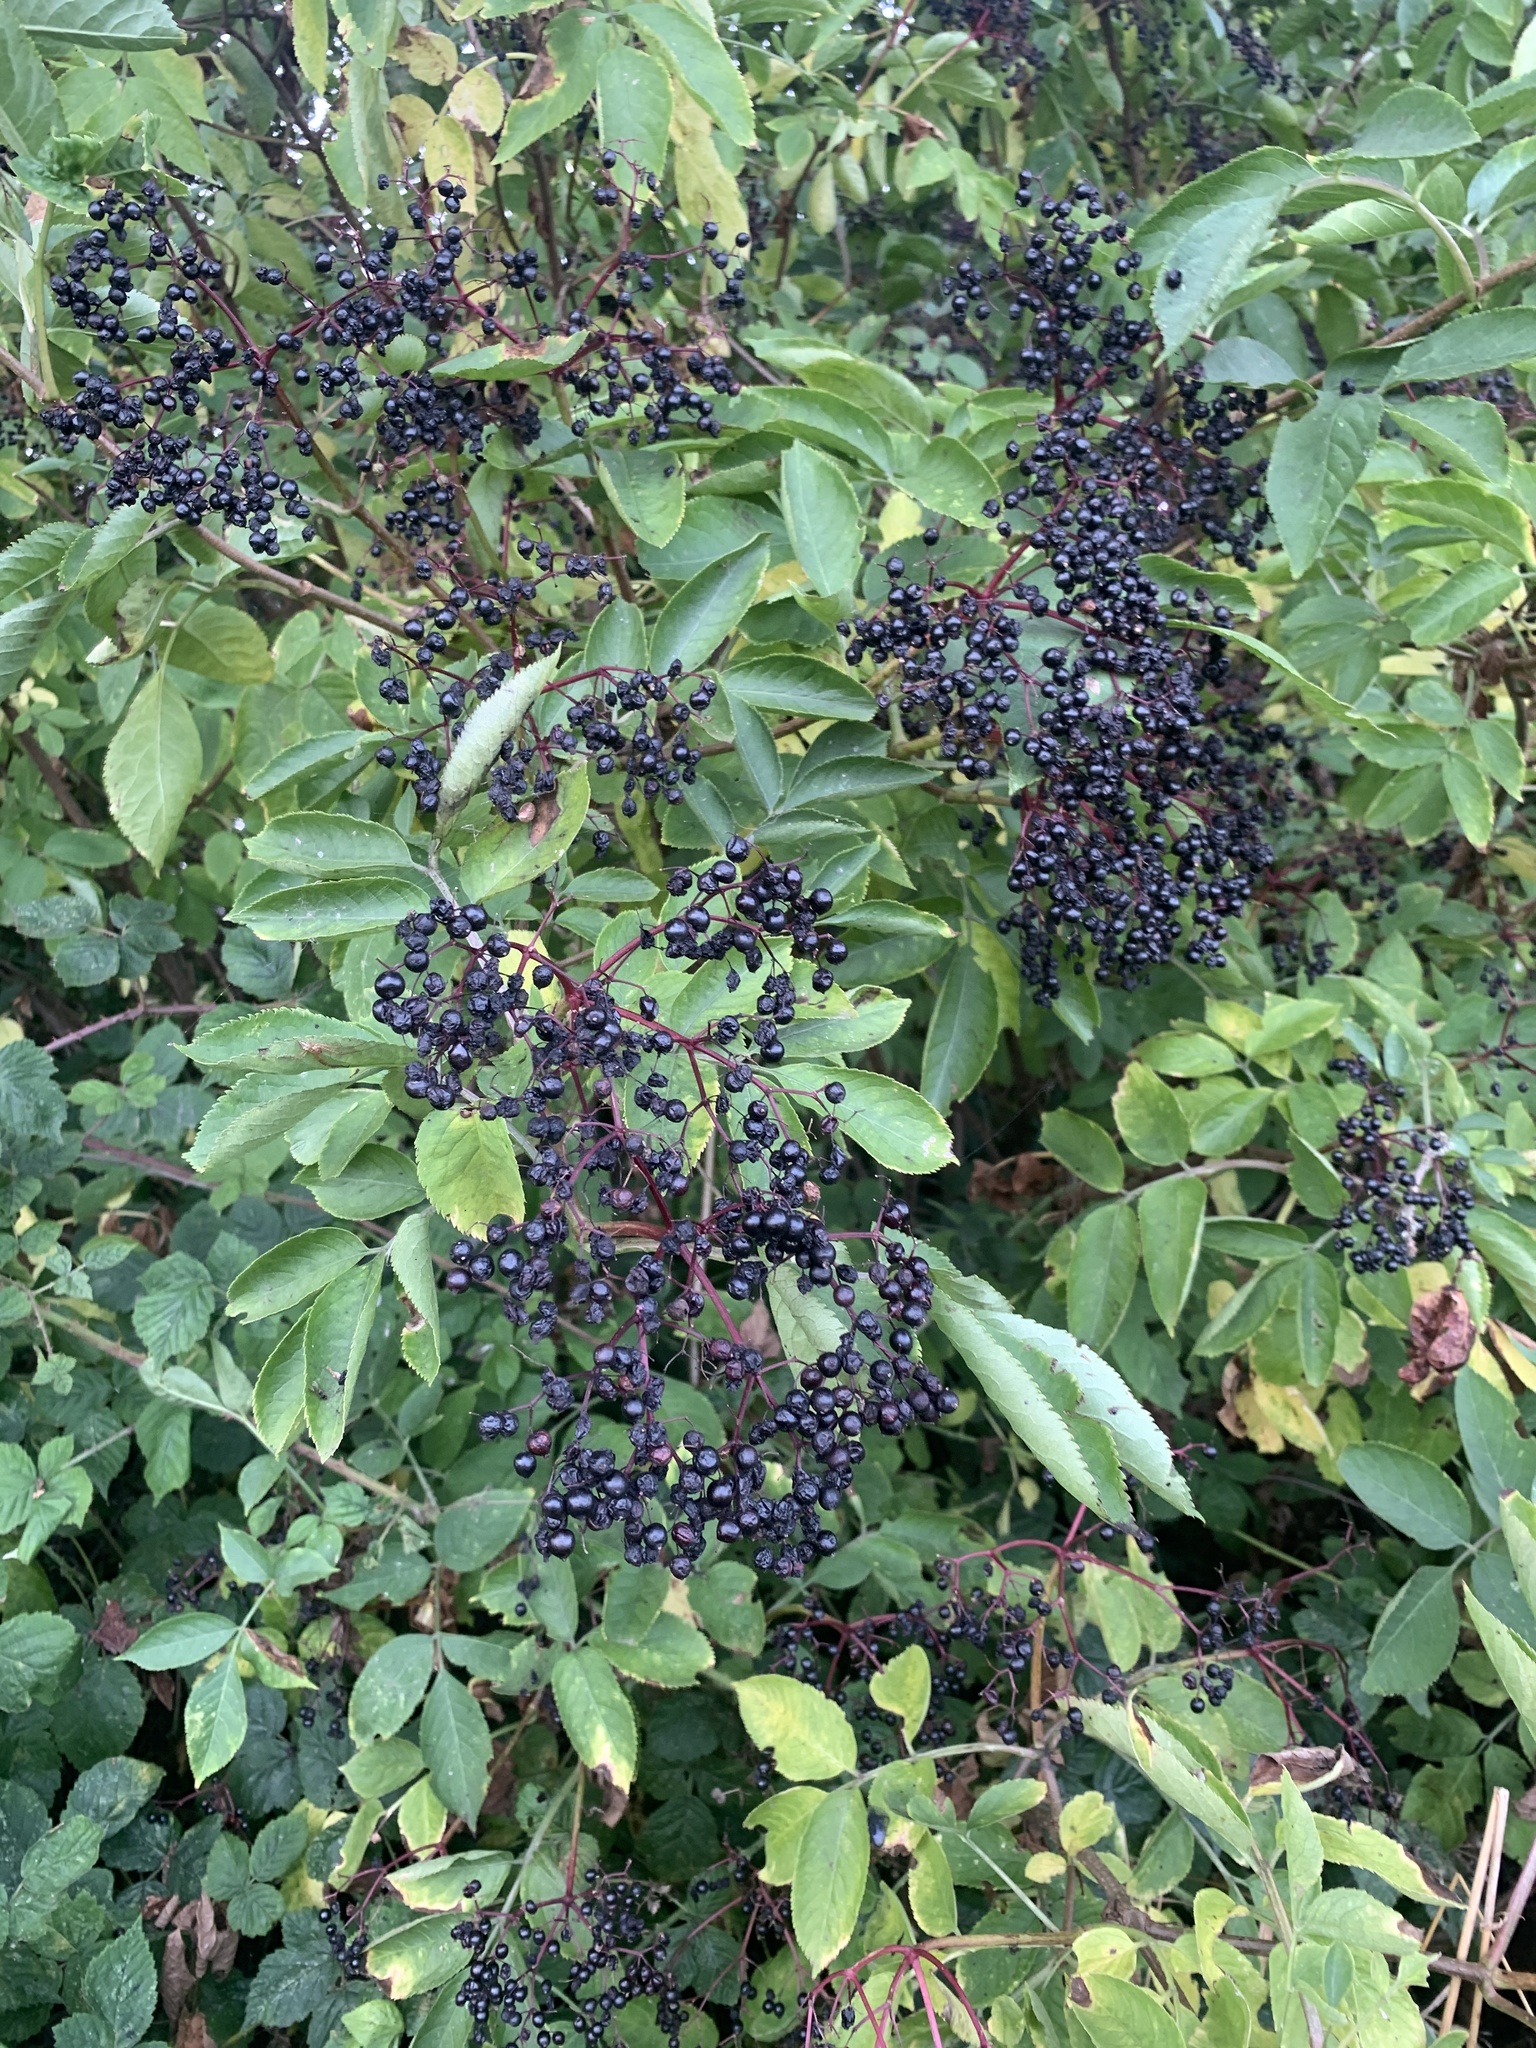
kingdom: Plantae
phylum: Tracheophyta
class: Magnoliopsida
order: Dipsacales
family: Viburnaceae
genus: Sambucus
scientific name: Sambucus nigra
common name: Elder
